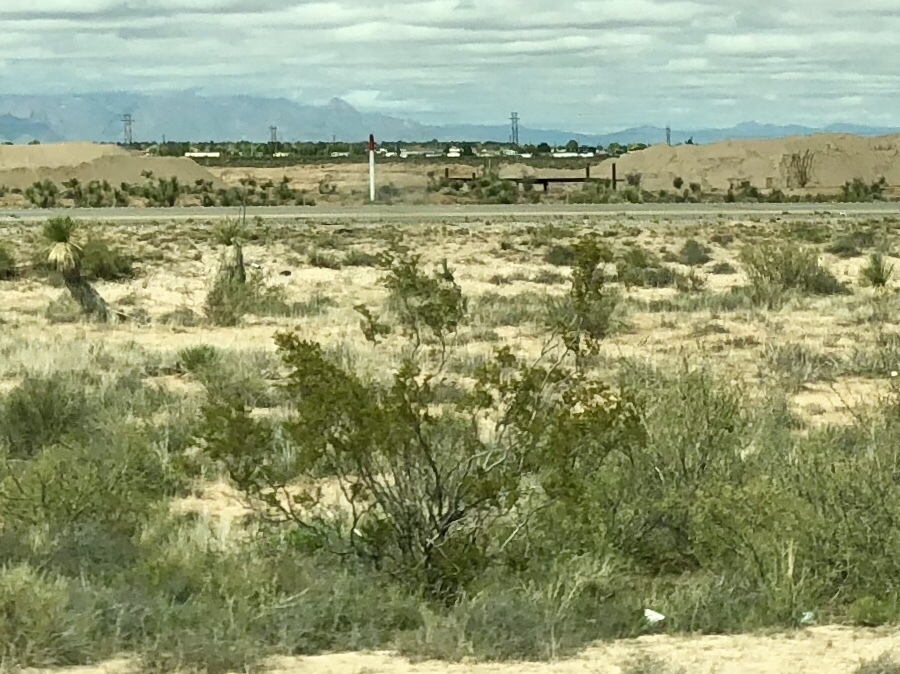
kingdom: Plantae
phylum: Tracheophyta
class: Magnoliopsida
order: Zygophyllales
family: Zygophyllaceae
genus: Larrea
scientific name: Larrea tridentata
